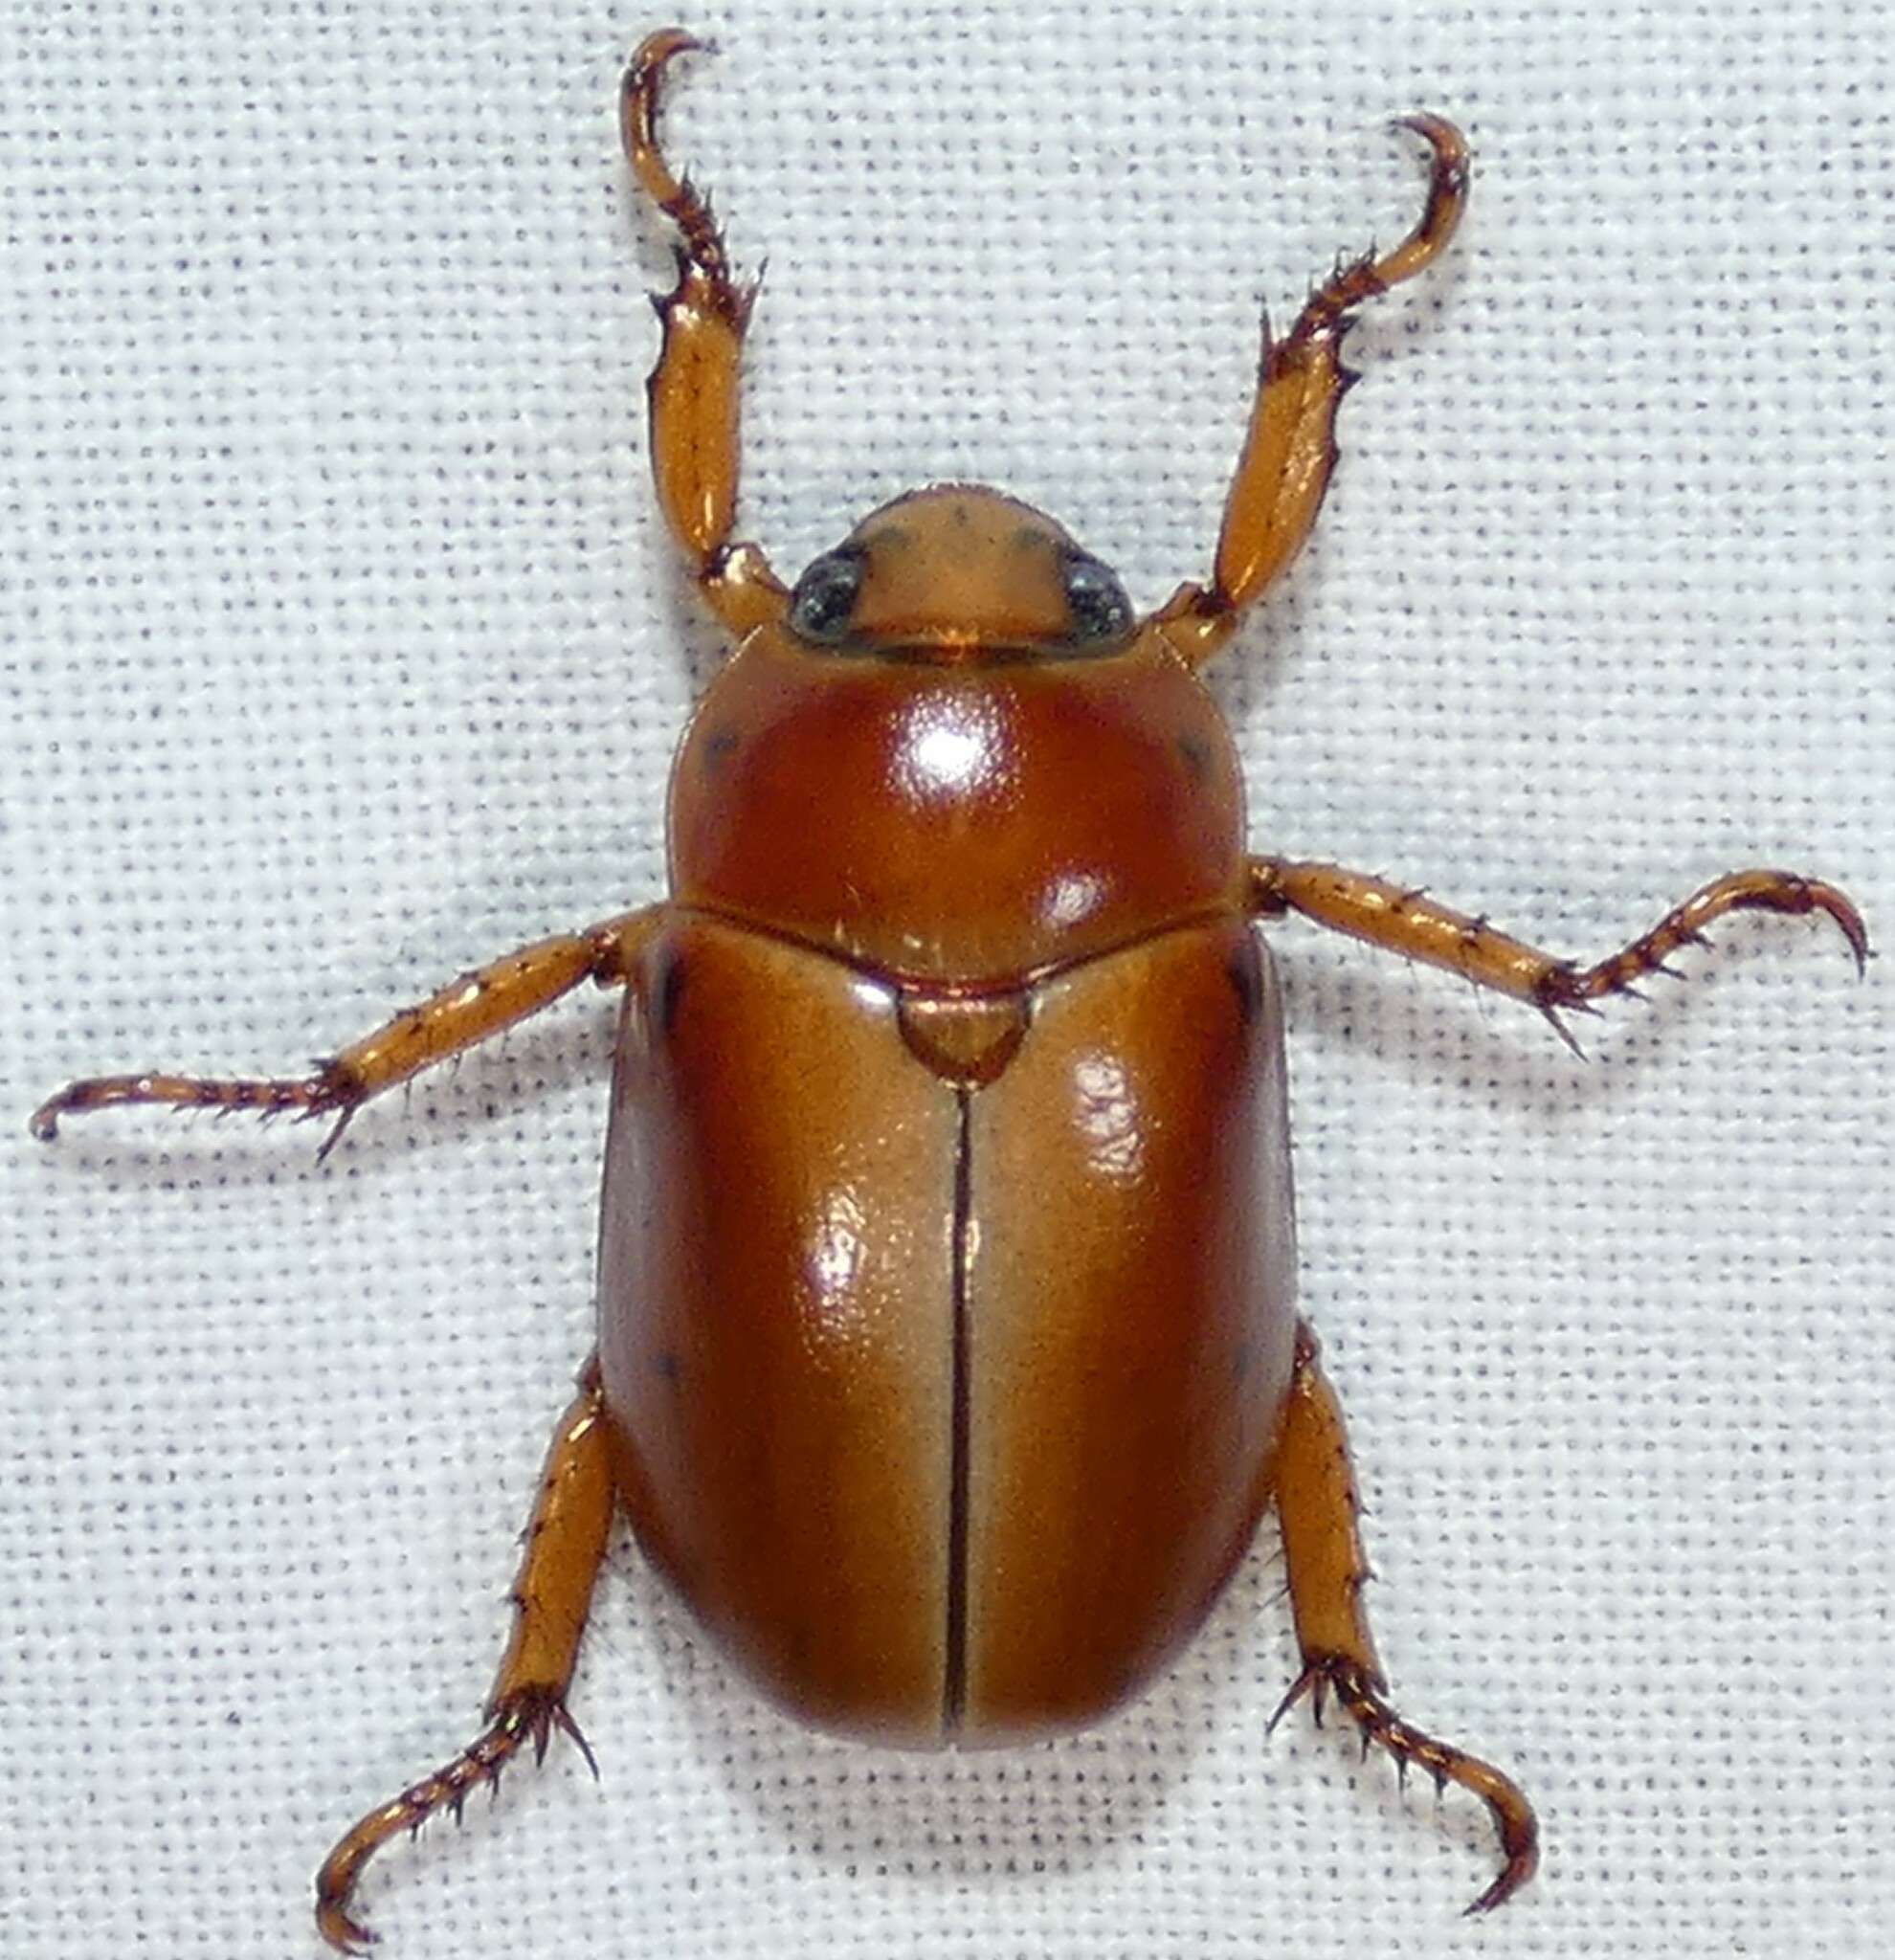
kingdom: Animalia
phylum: Arthropoda
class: Insecta
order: Coleoptera
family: Scarabaeidae
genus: Pelidnota
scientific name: Pelidnota punctata
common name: Grapevine beetle
